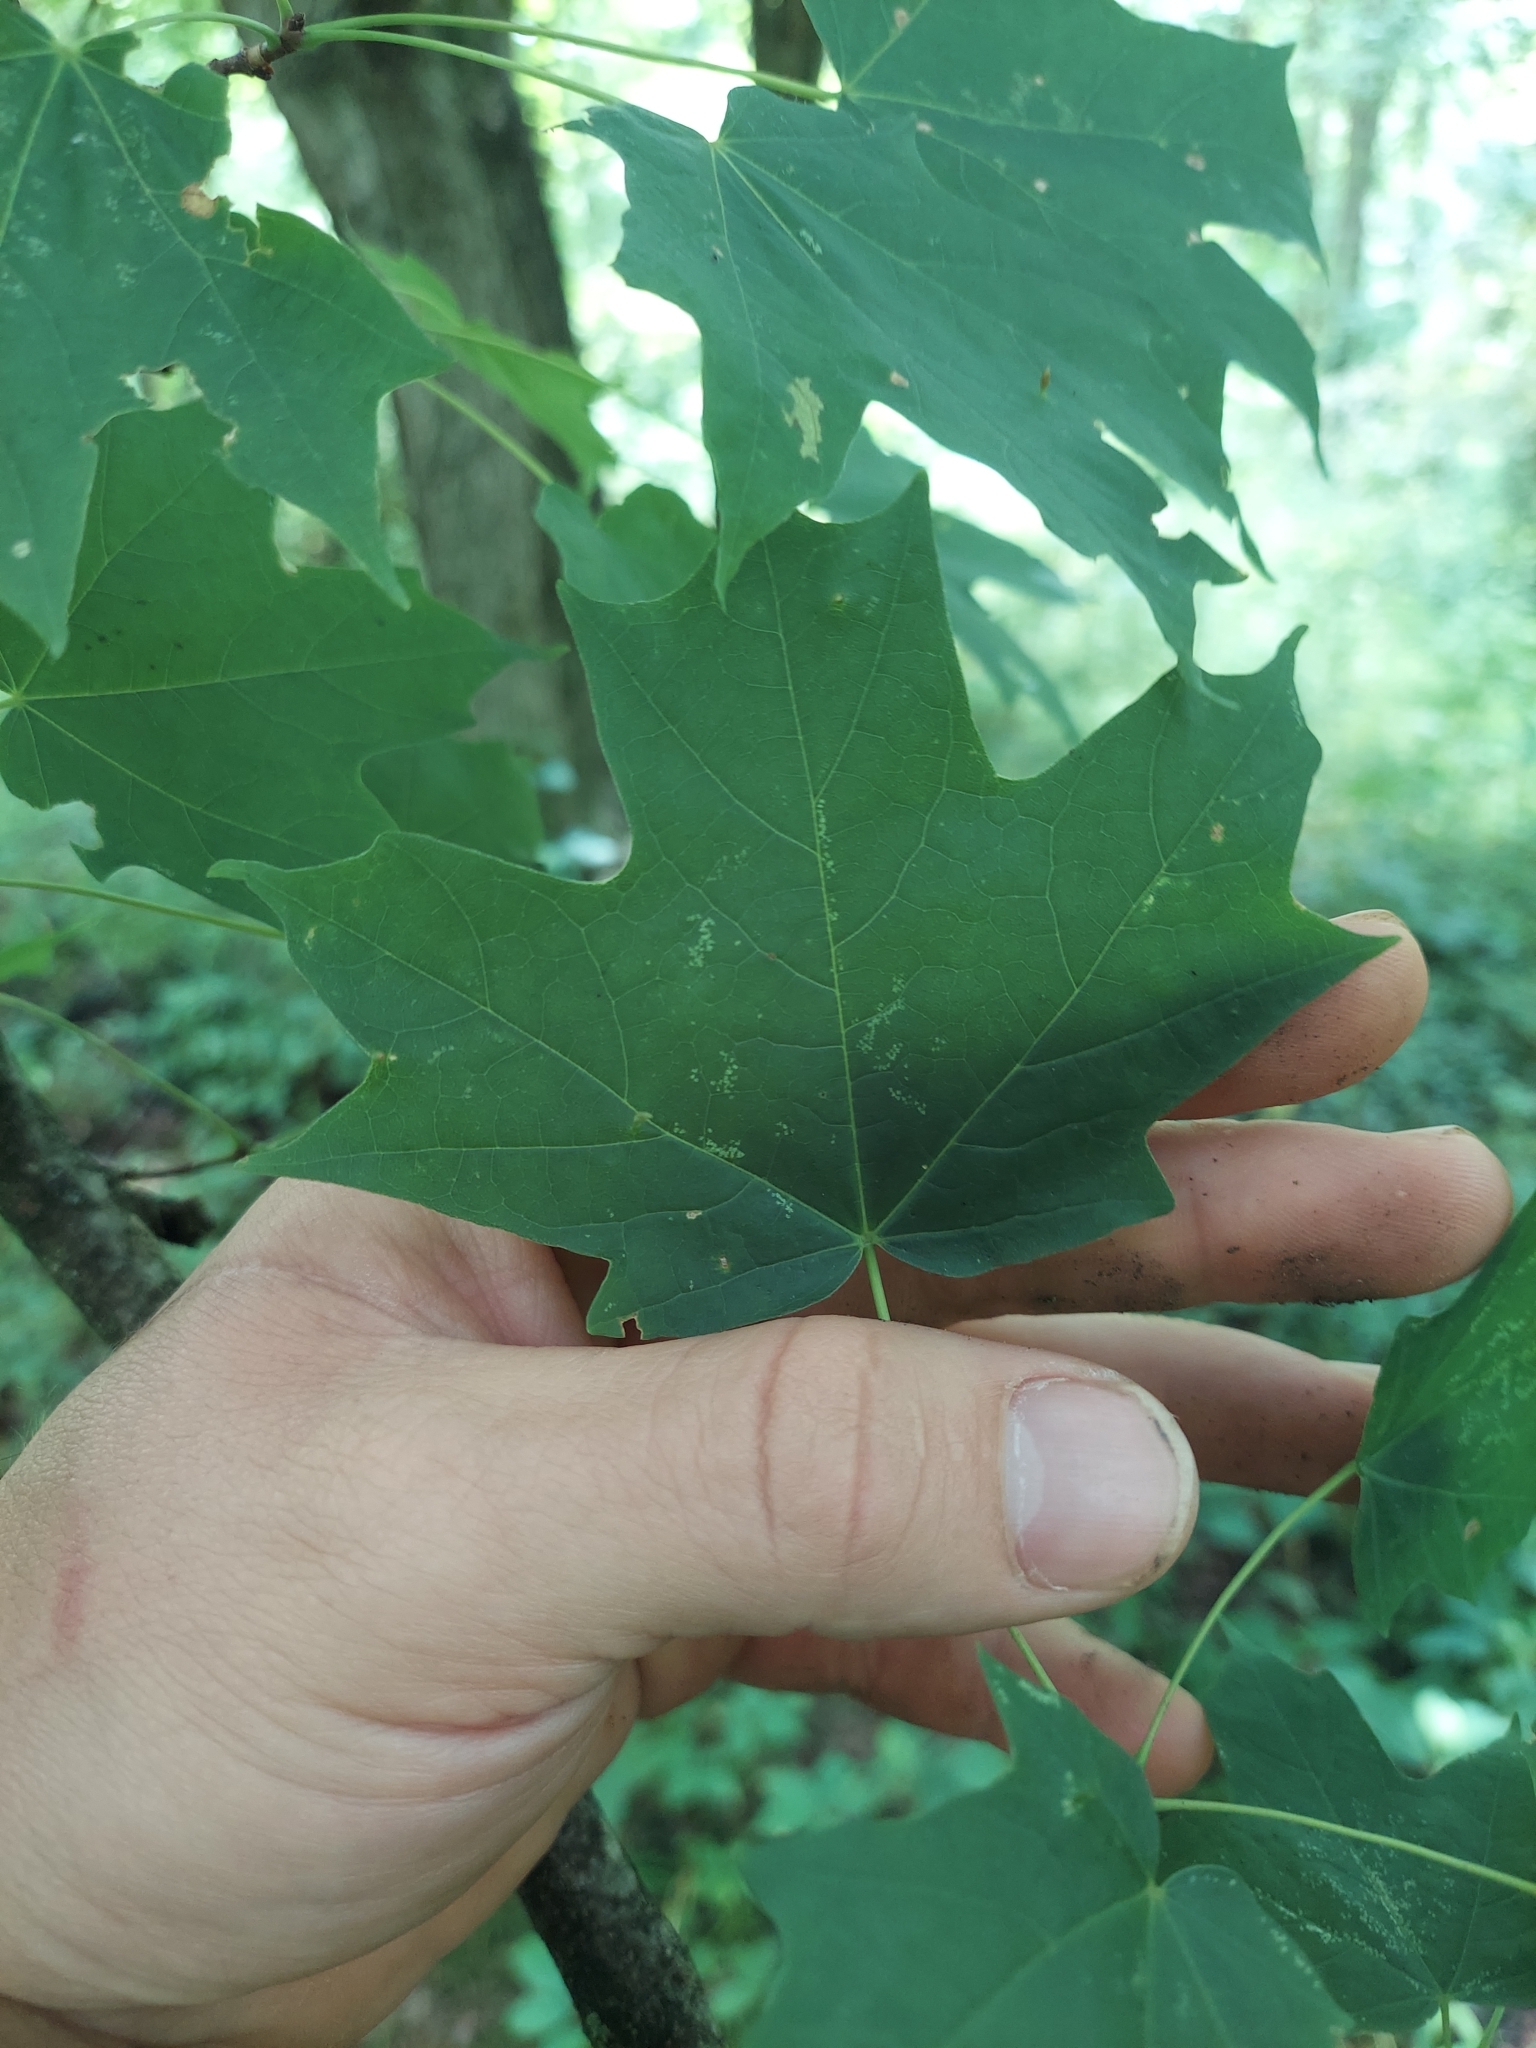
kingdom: Plantae
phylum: Tracheophyta
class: Magnoliopsida
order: Sapindales
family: Sapindaceae
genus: Acer
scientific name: Acer saccharum
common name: Sugar maple
